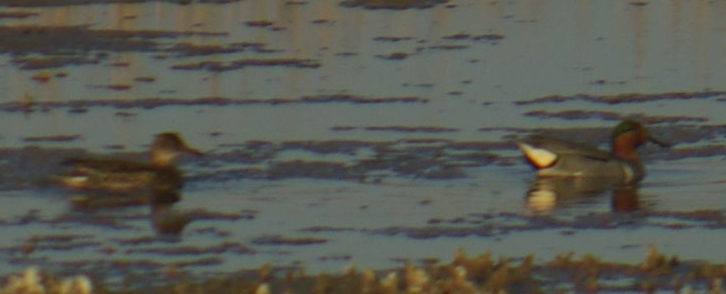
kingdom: Animalia
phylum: Chordata
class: Aves
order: Anseriformes
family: Anatidae
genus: Anas
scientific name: Anas crecca
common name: Eurasian teal
